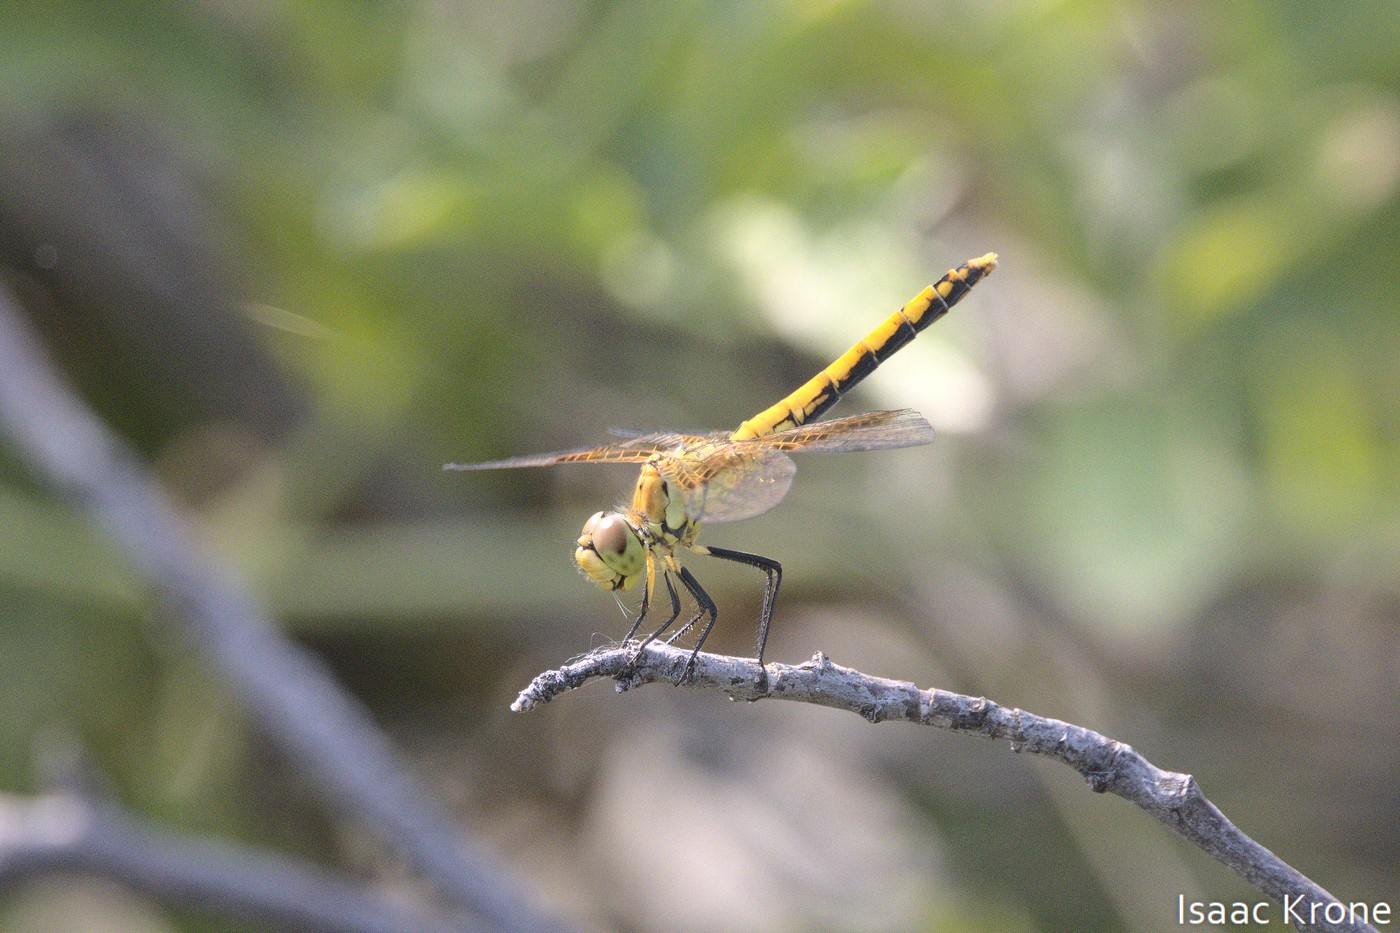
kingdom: Animalia
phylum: Arthropoda
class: Insecta
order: Odonata
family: Libellulidae
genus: Sympetrum
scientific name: Sympetrum semicinctum
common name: Band-winged meadowhawk
